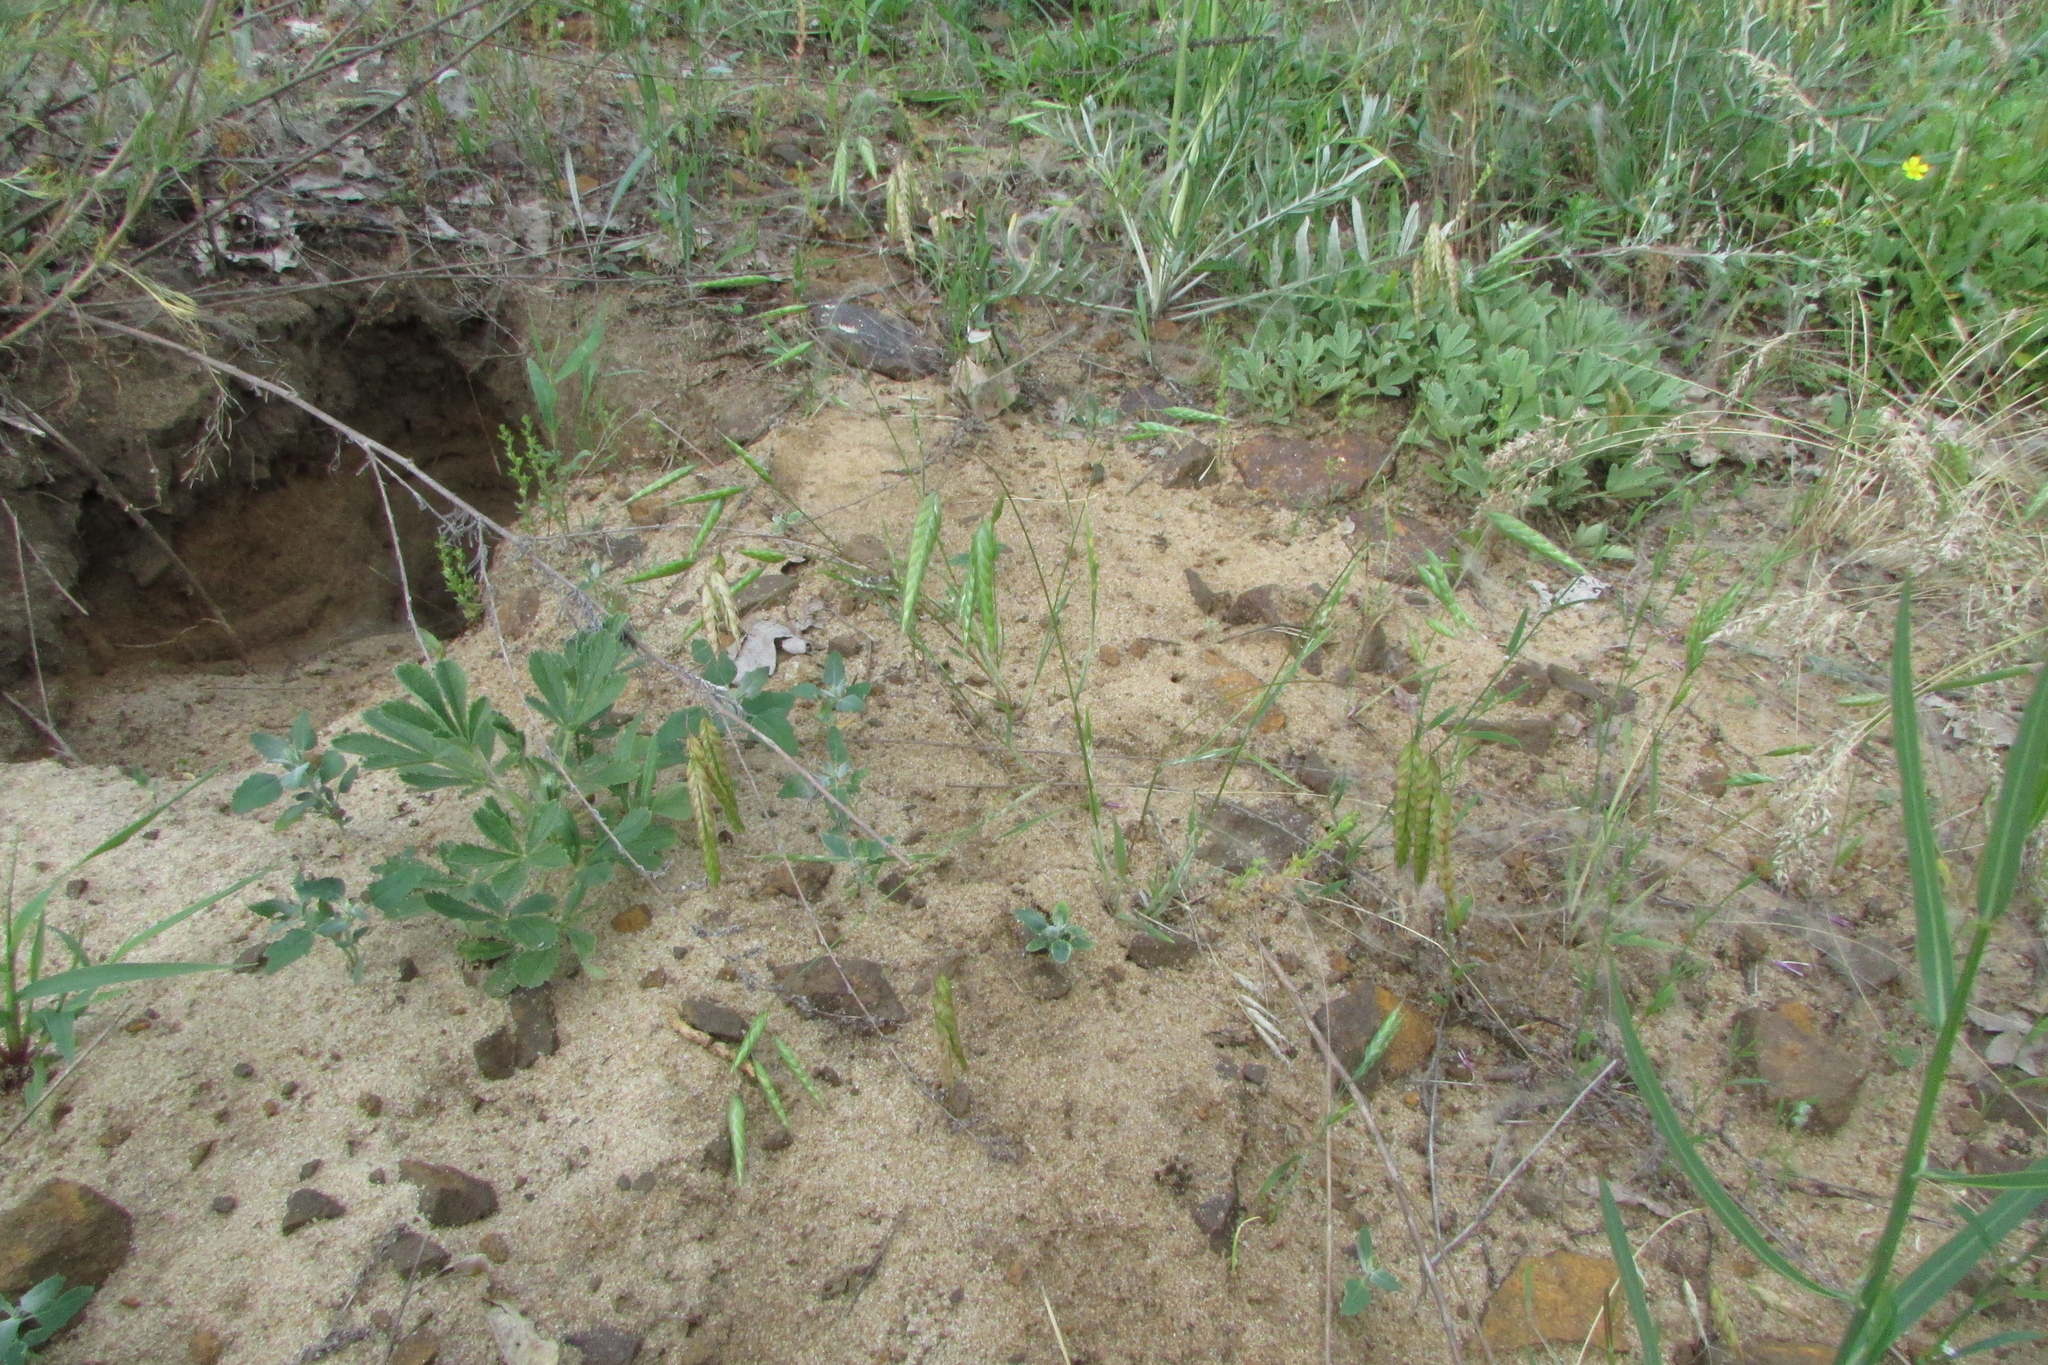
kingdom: Plantae
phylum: Tracheophyta
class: Liliopsida
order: Poales
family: Poaceae
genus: Bromus
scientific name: Bromus squarrosus
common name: Corn brome
